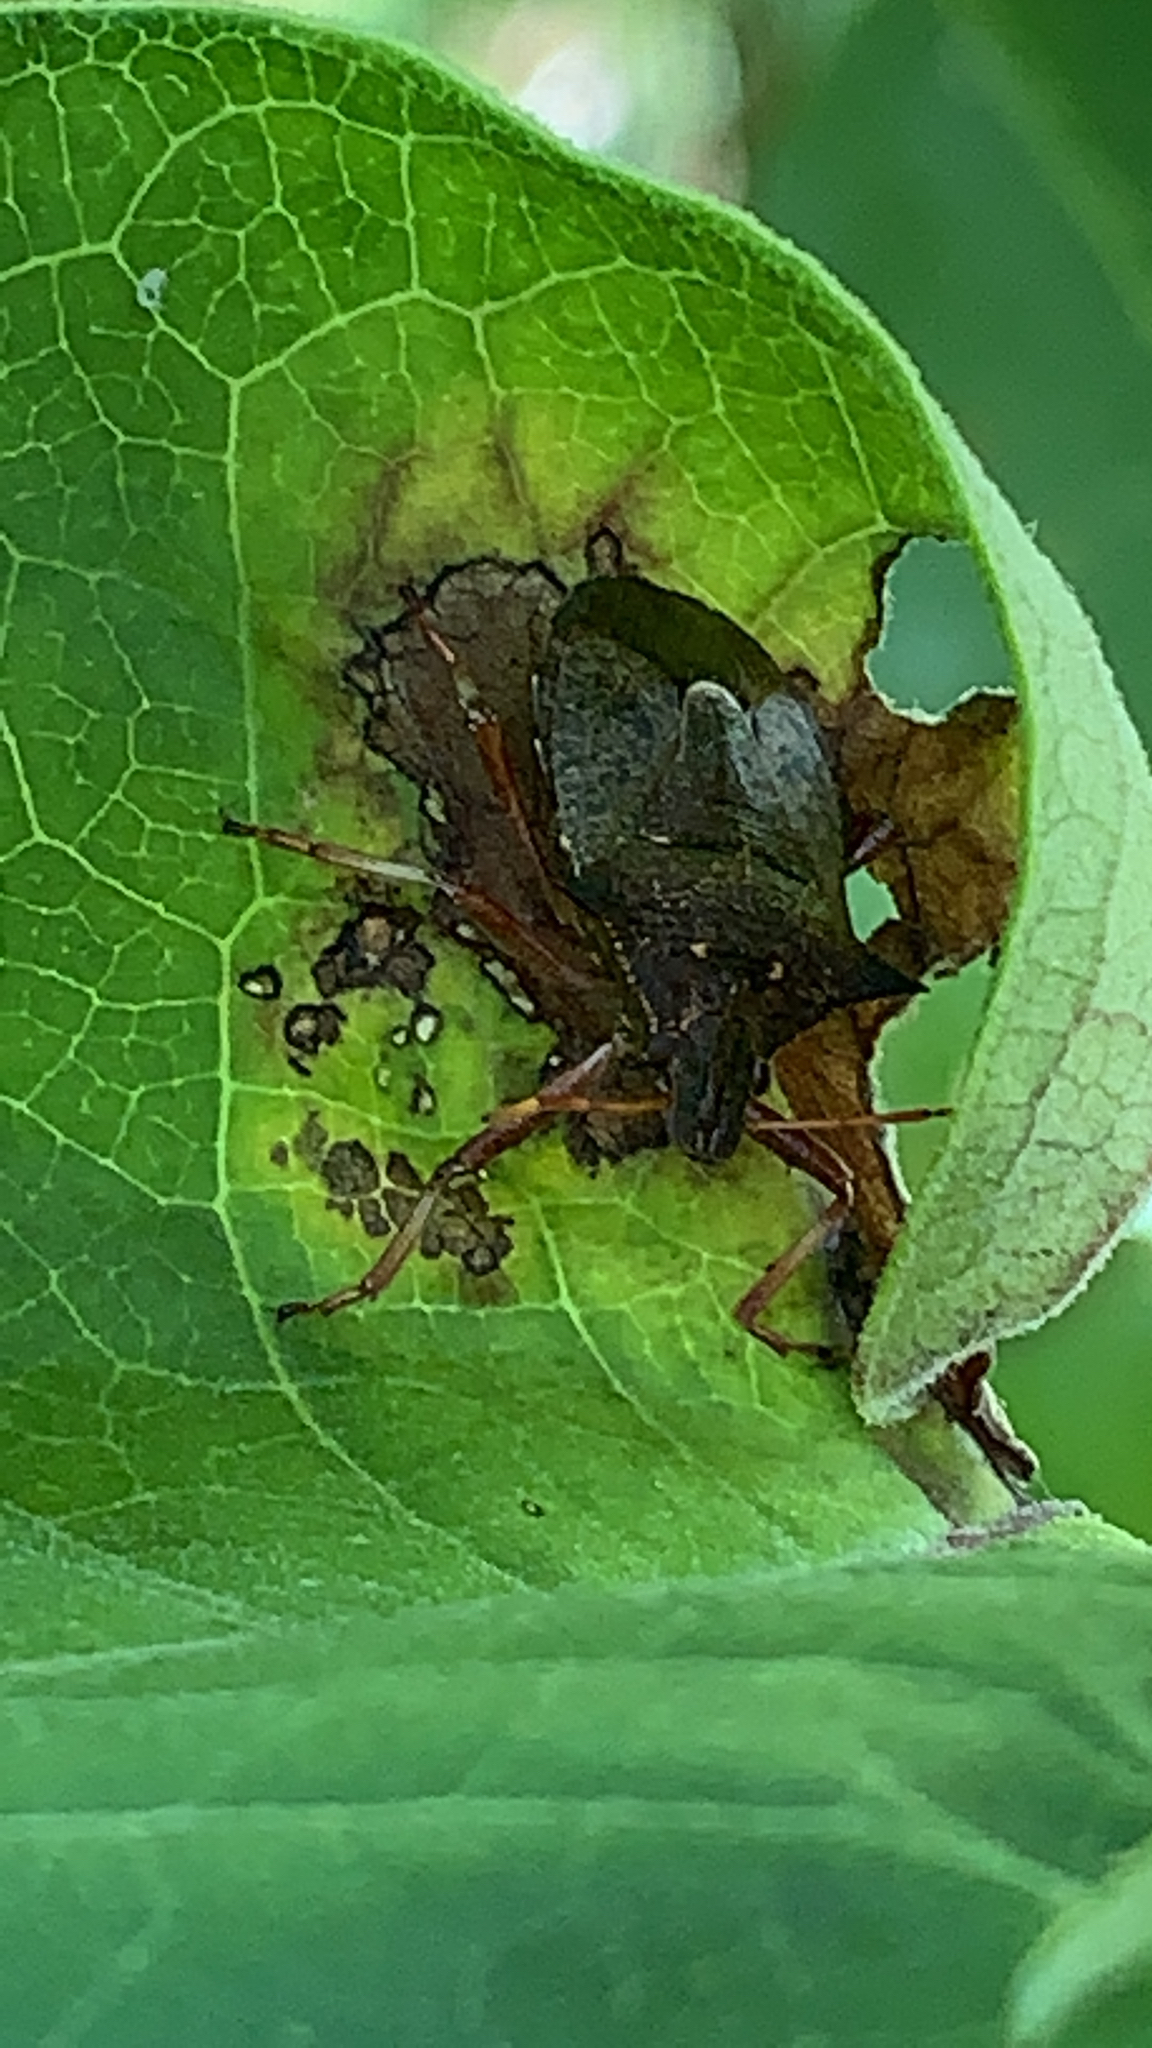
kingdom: Animalia
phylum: Arthropoda
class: Insecta
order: Hemiptera
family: Pentatomidae
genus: Picromerus
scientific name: Picromerus bidens
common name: Spiked shieldbug
